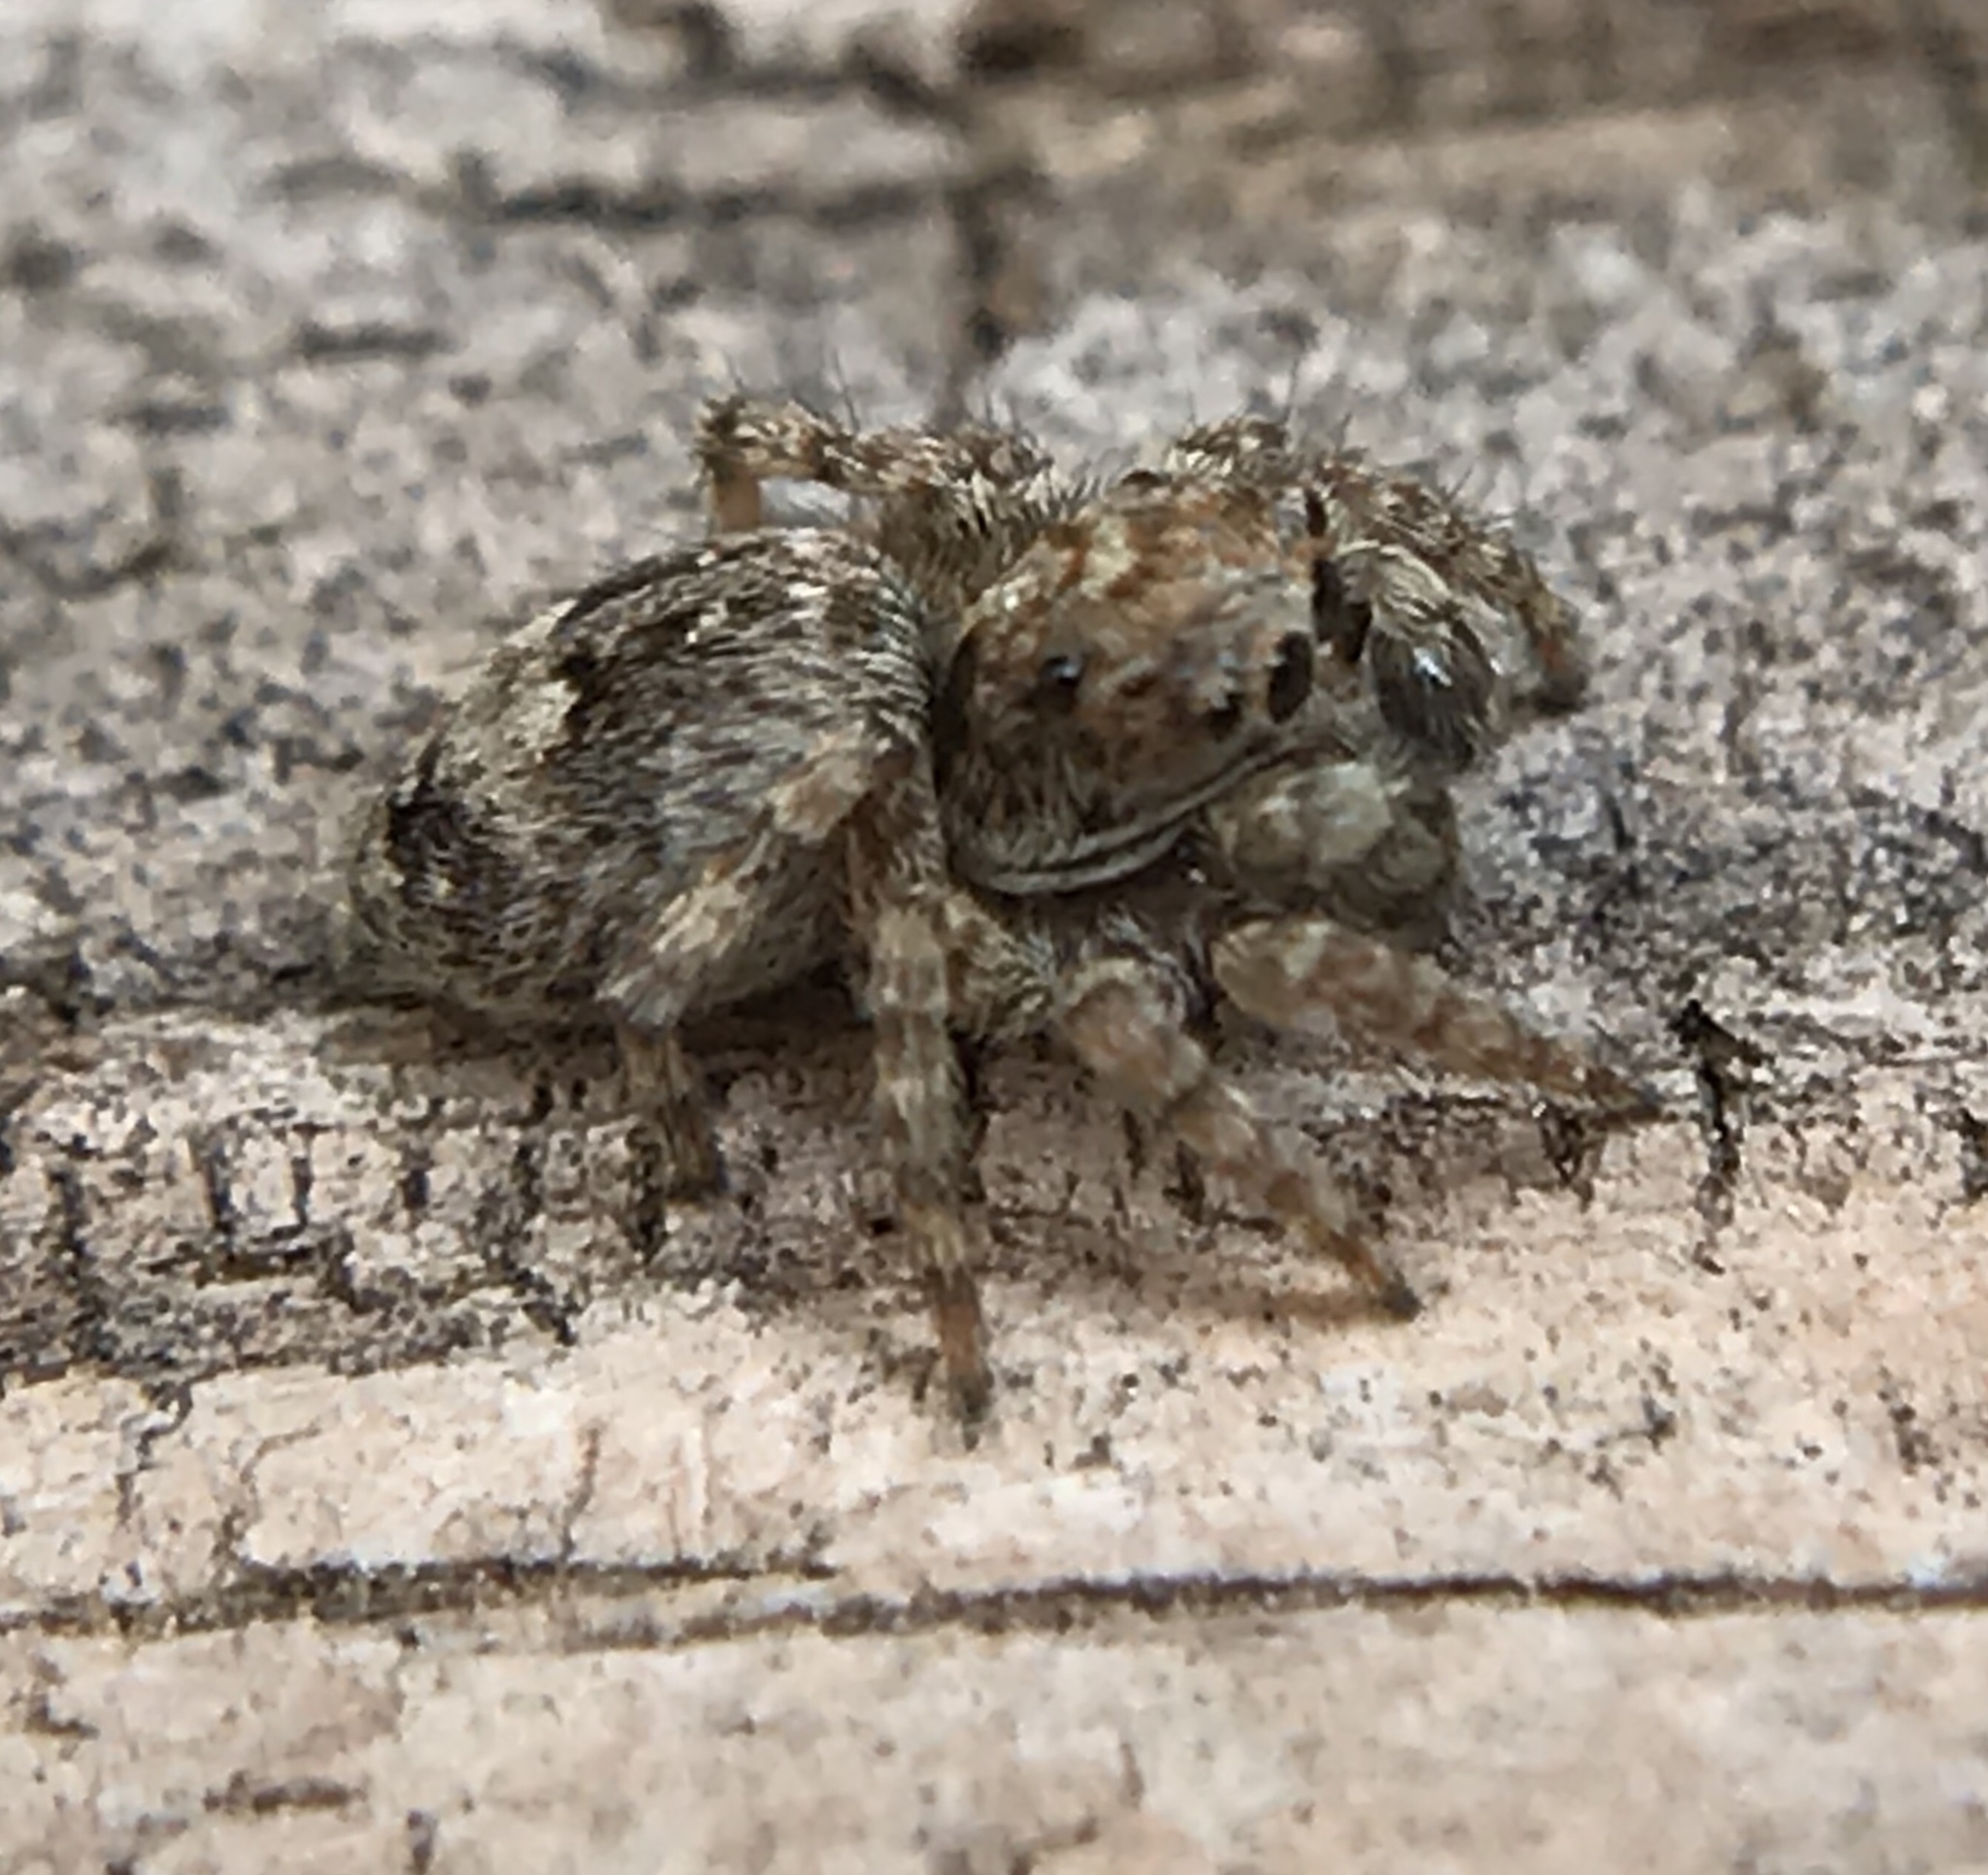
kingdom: Animalia
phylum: Arthropoda
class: Arachnida
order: Araneae
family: Salticidae
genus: Attulus
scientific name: Attulus fasciger
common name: Asiatic wall jumping spider
